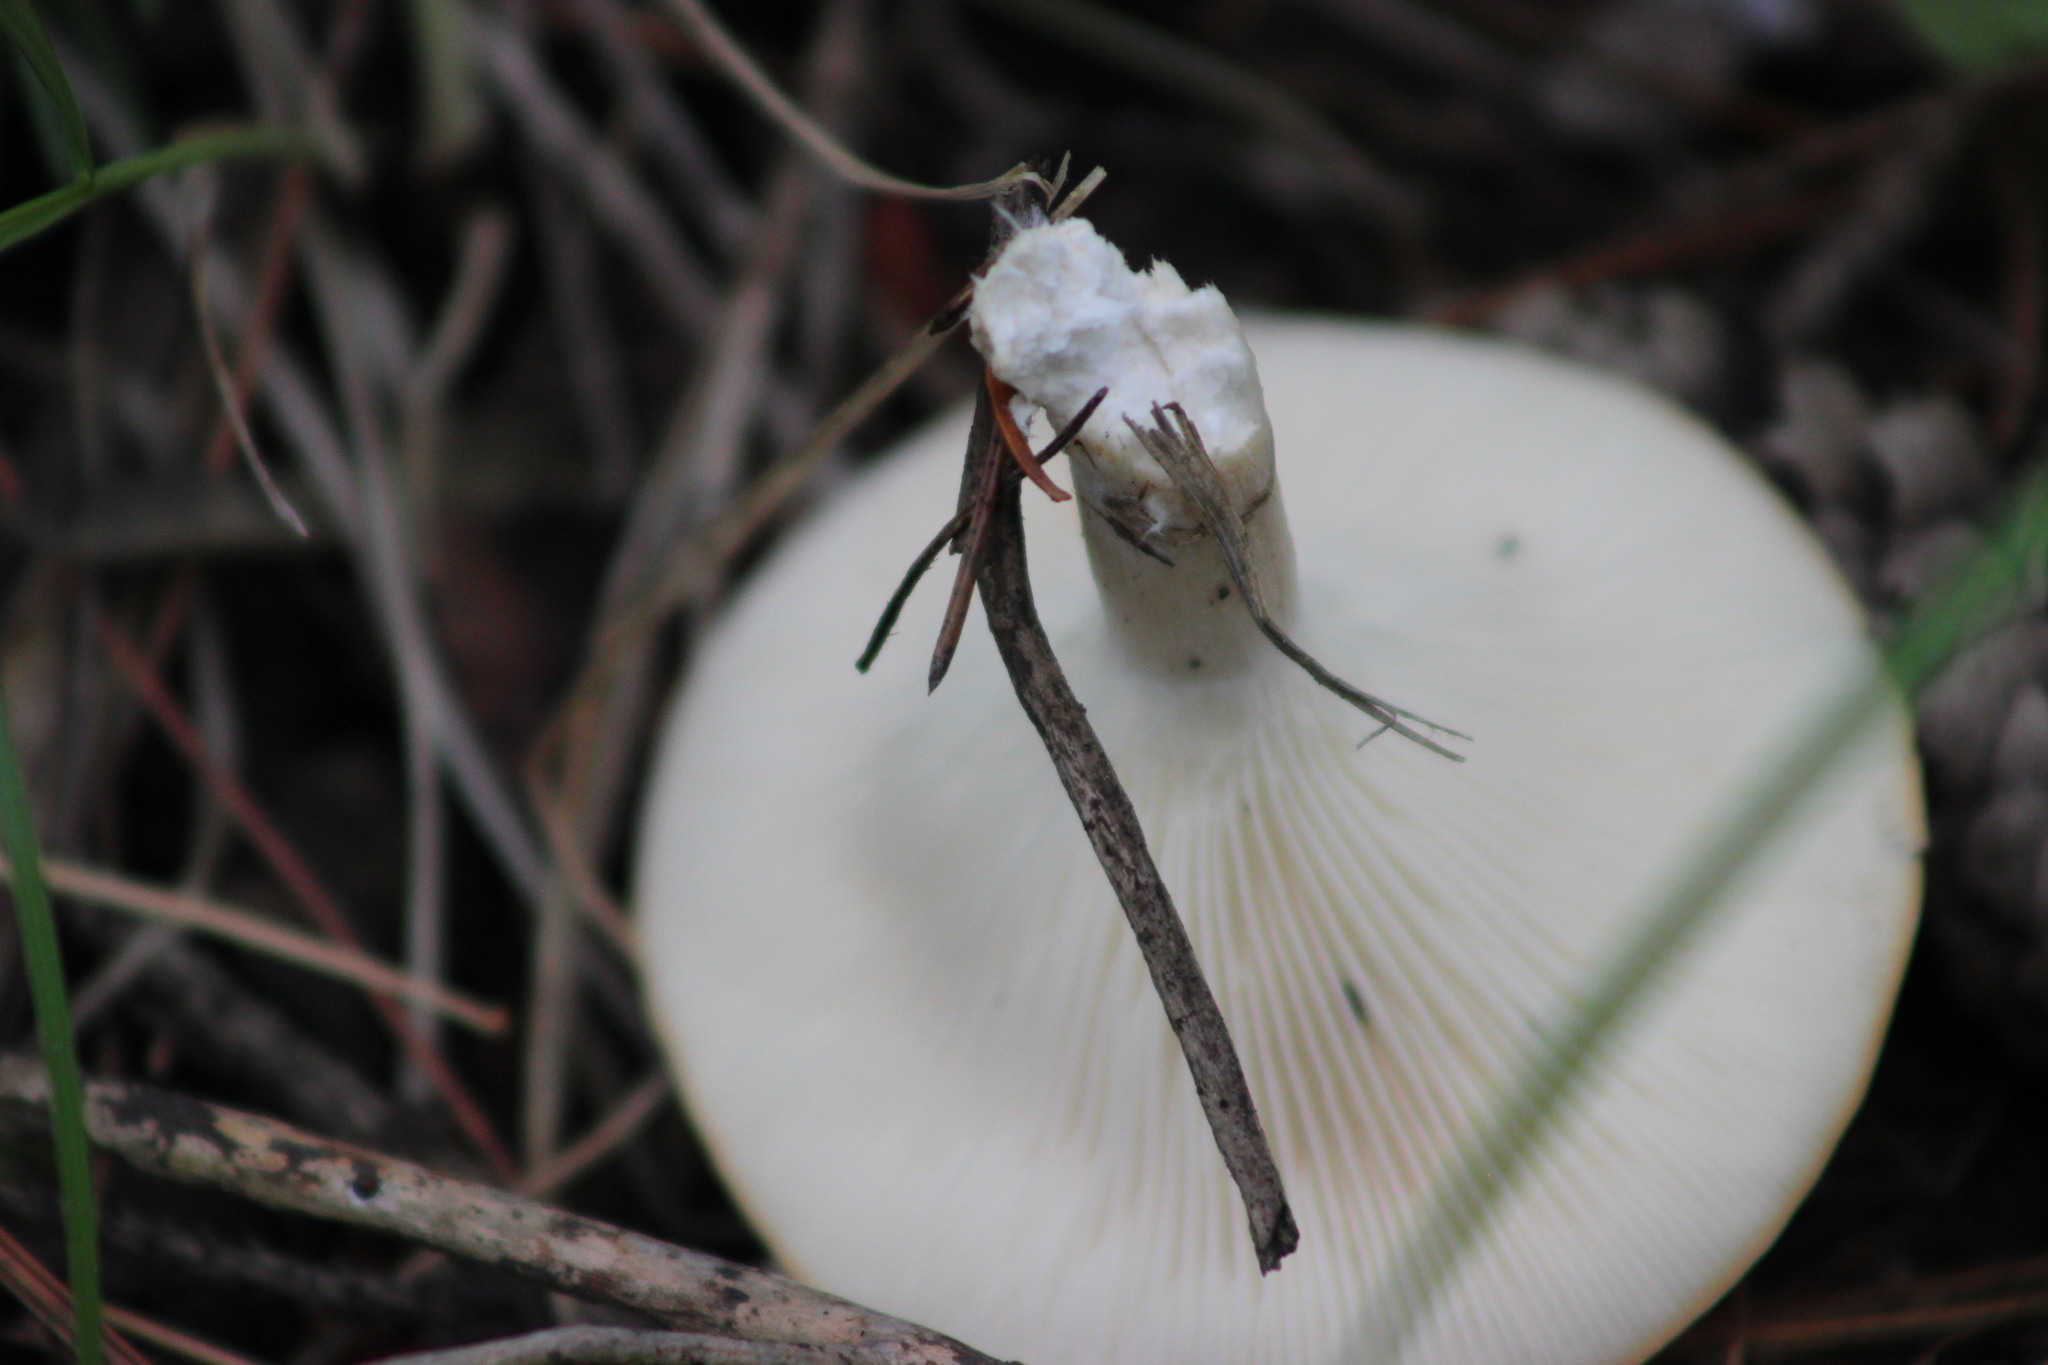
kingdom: Fungi
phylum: Basidiomycota
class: Agaricomycetes
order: Agaricales
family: Tricholomataceae
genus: Infundibulicybe
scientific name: Infundibulicybe gibba
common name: Common funnel
